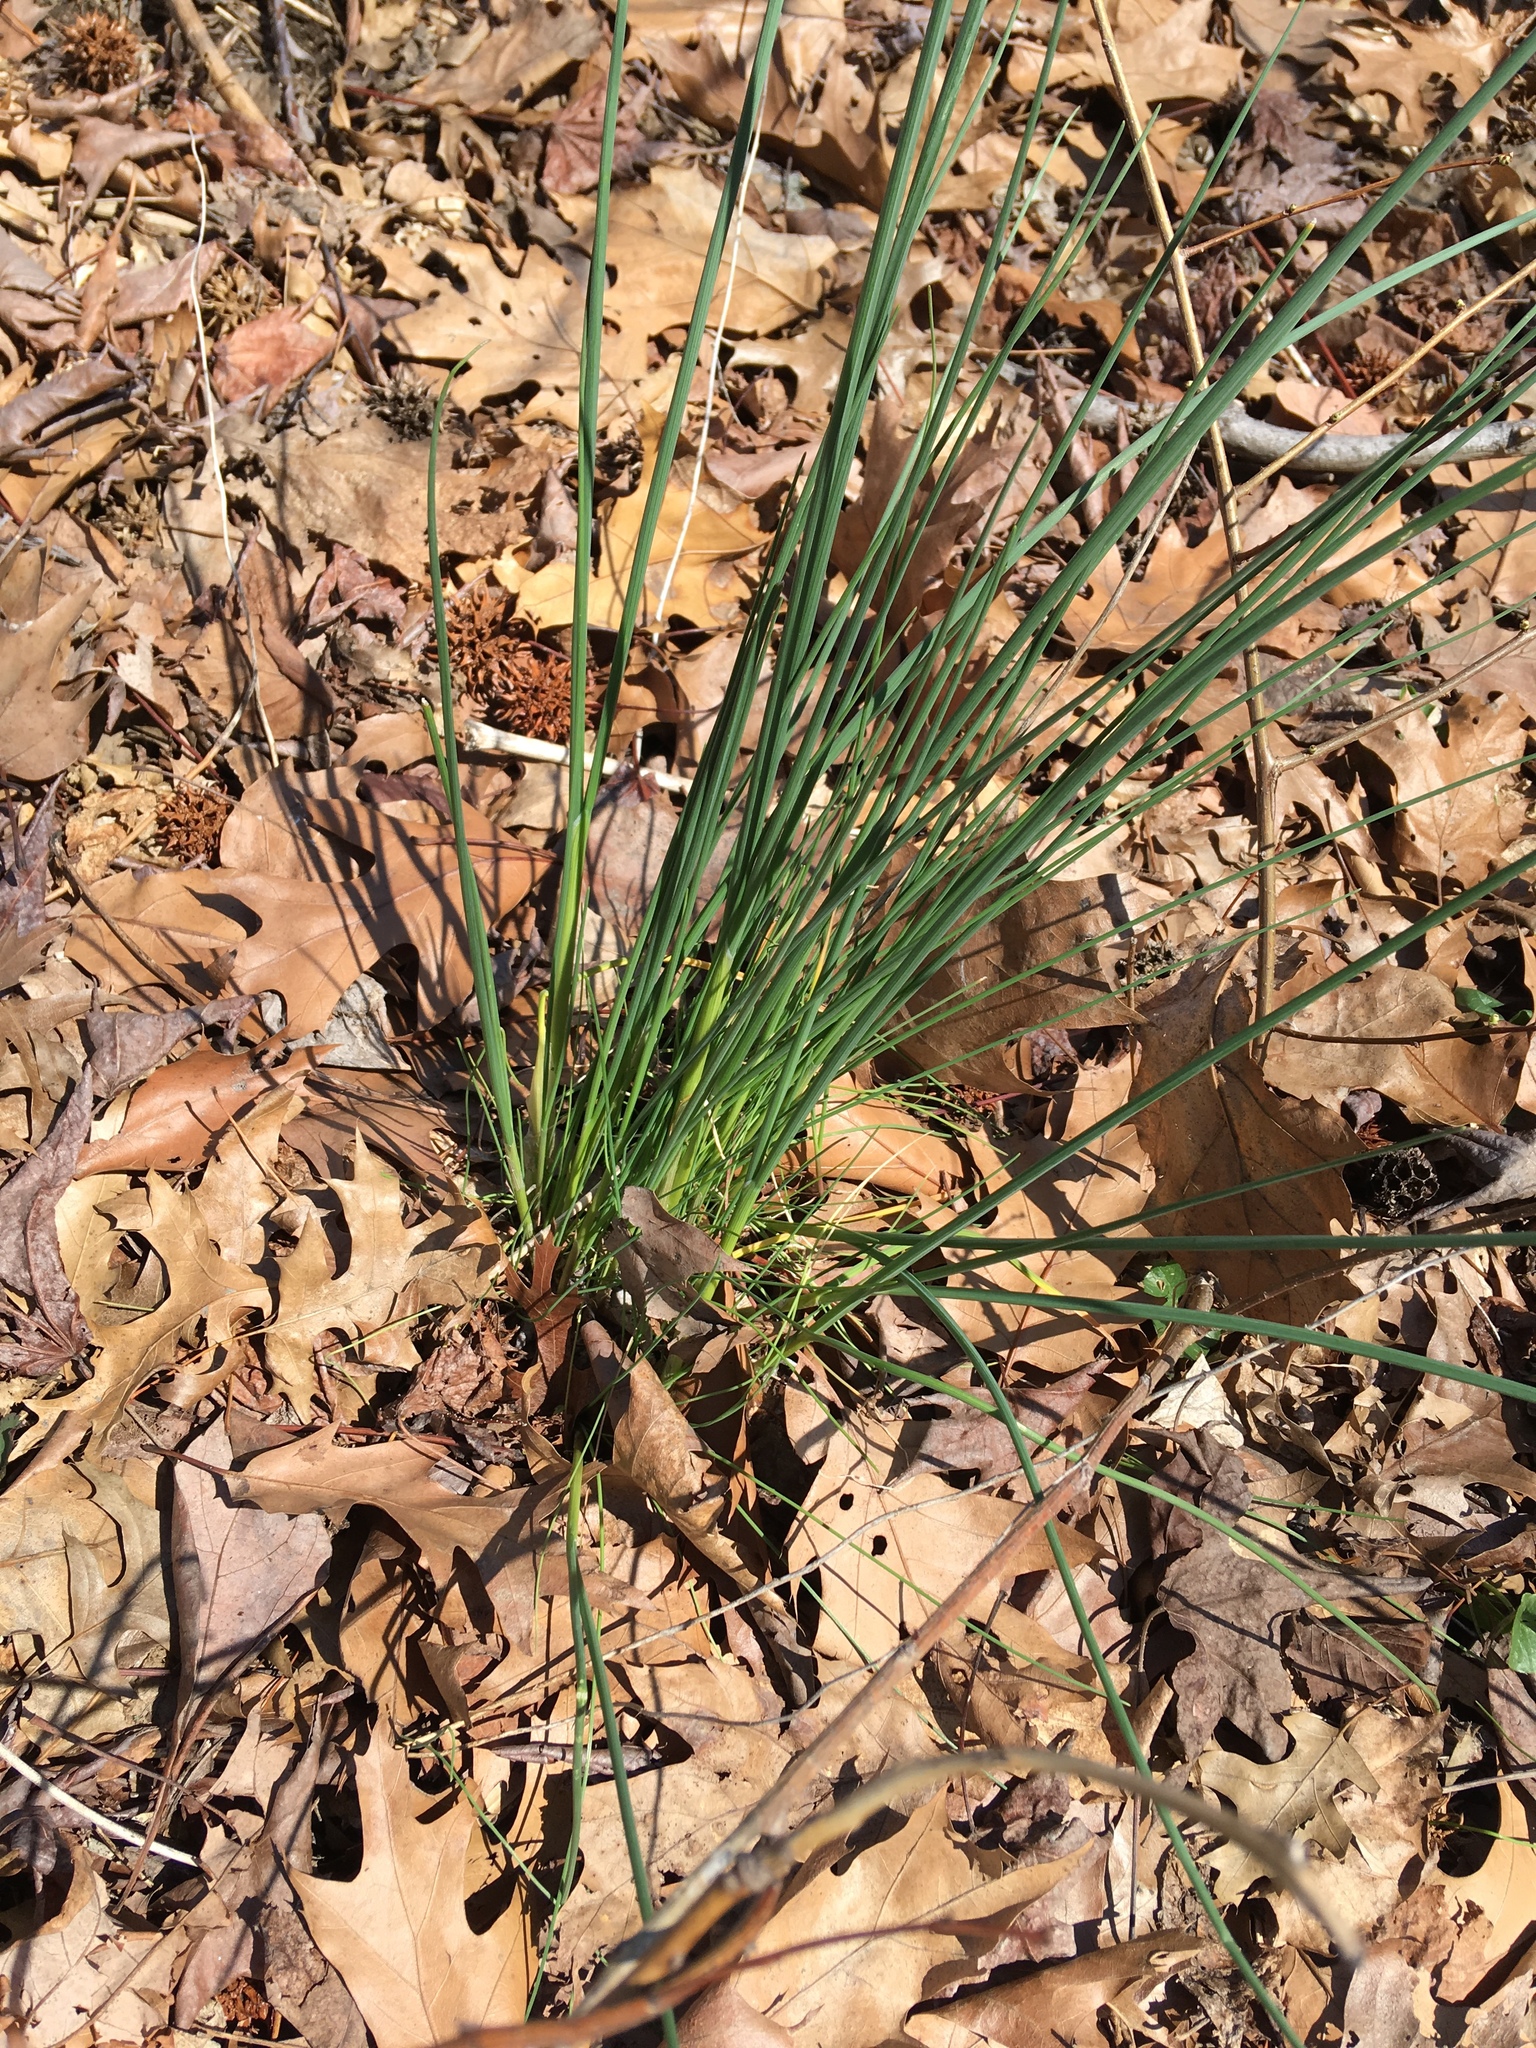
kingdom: Plantae
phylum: Tracheophyta
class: Liliopsida
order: Asparagales
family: Amaryllidaceae
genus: Allium
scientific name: Allium vineale
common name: Crow garlic
